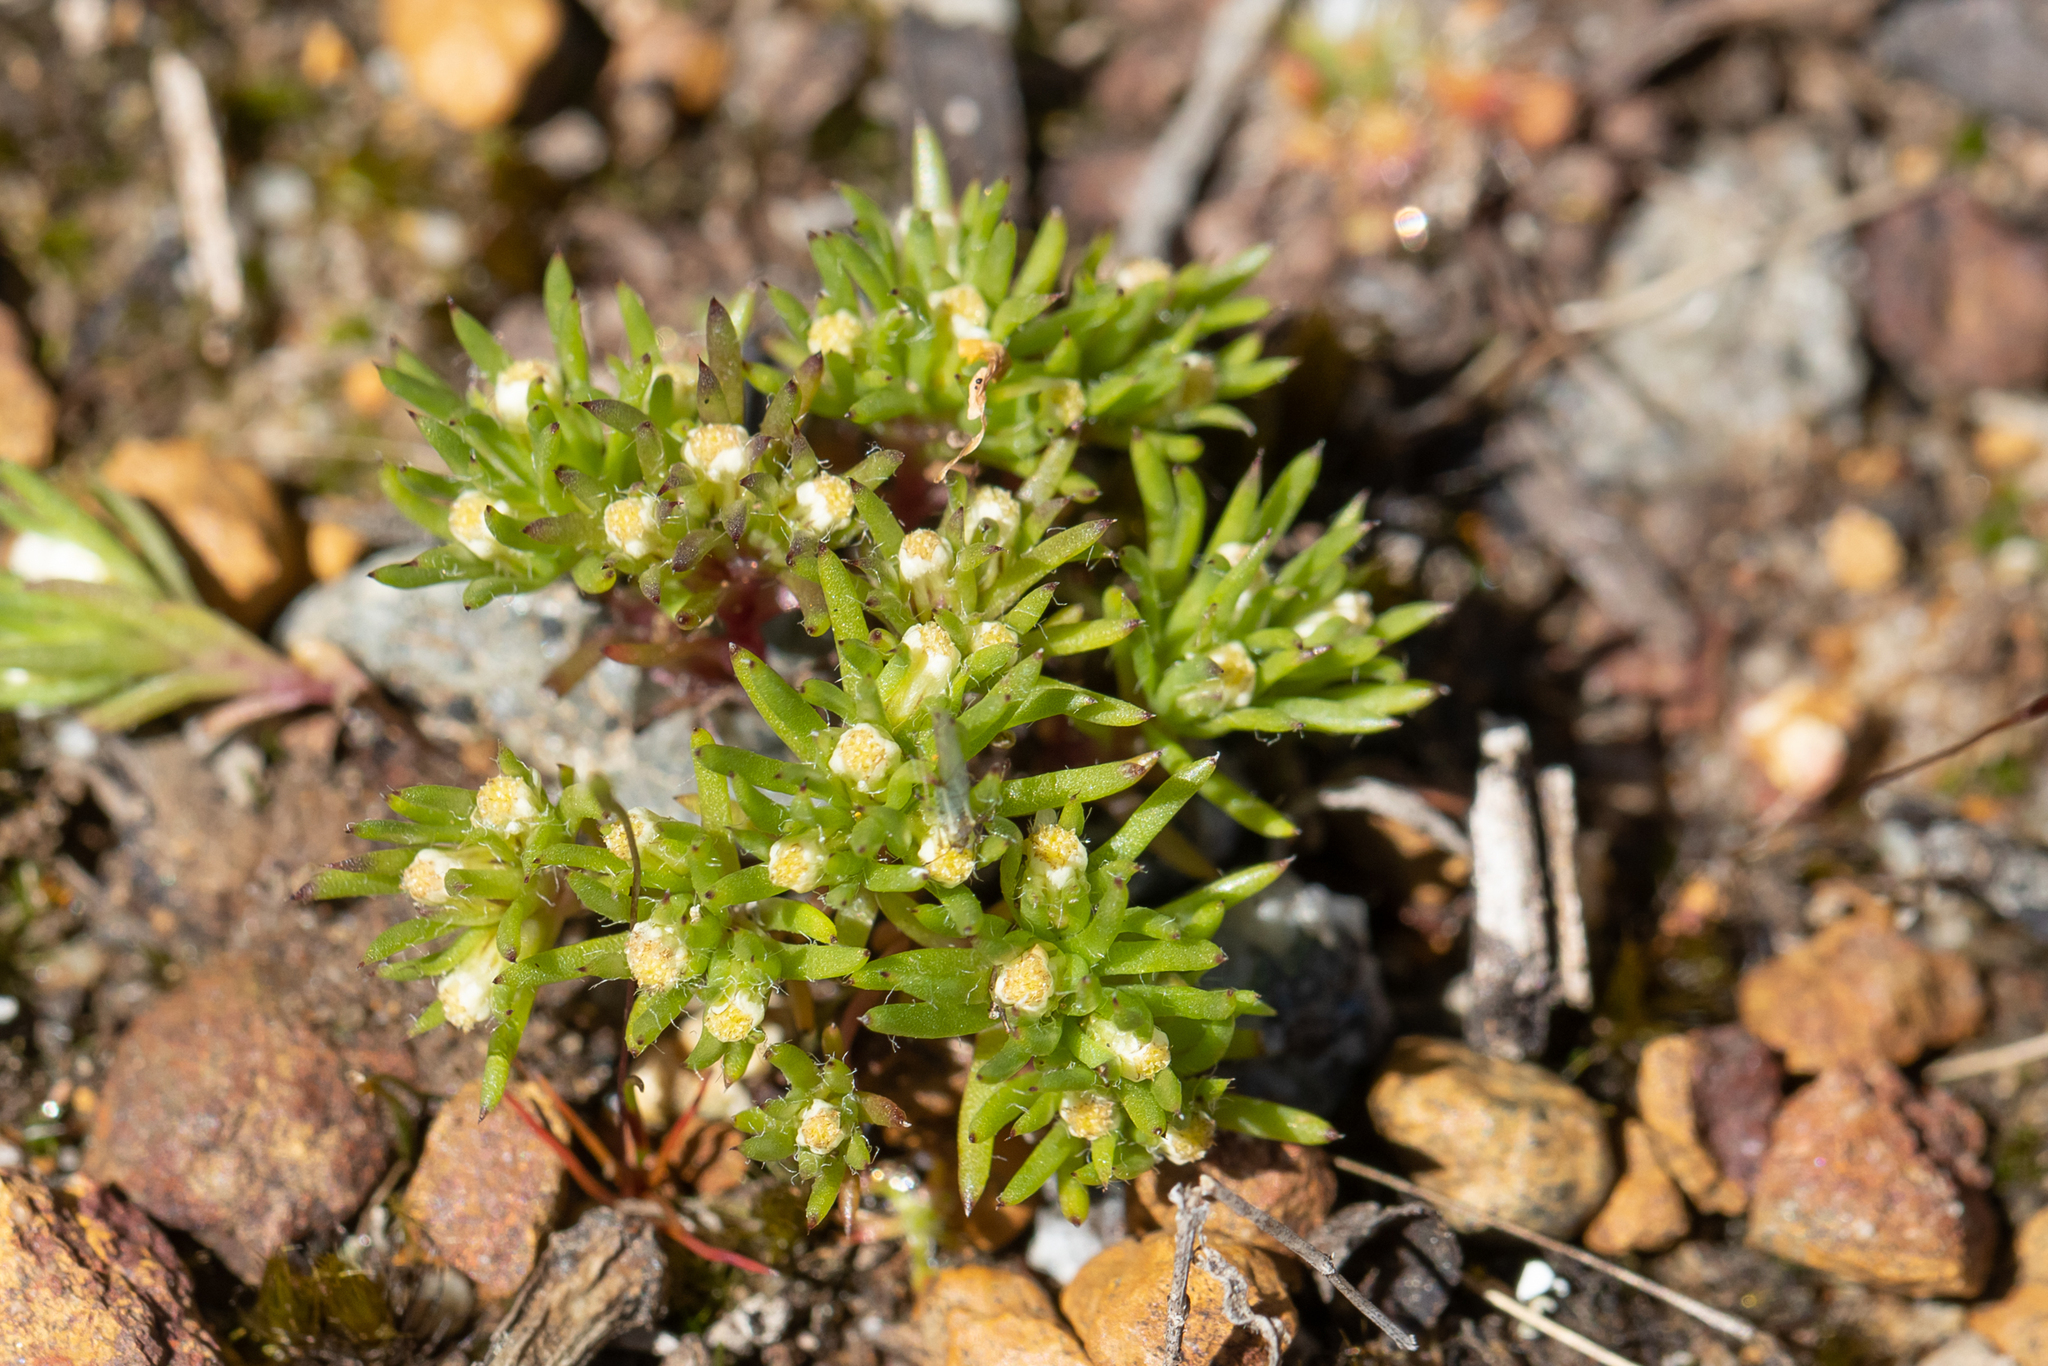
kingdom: Plantae
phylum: Tracheophyta
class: Magnoliopsida
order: Asterales
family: Asteraceae
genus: Hyalosperma
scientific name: Hyalosperma demissum
